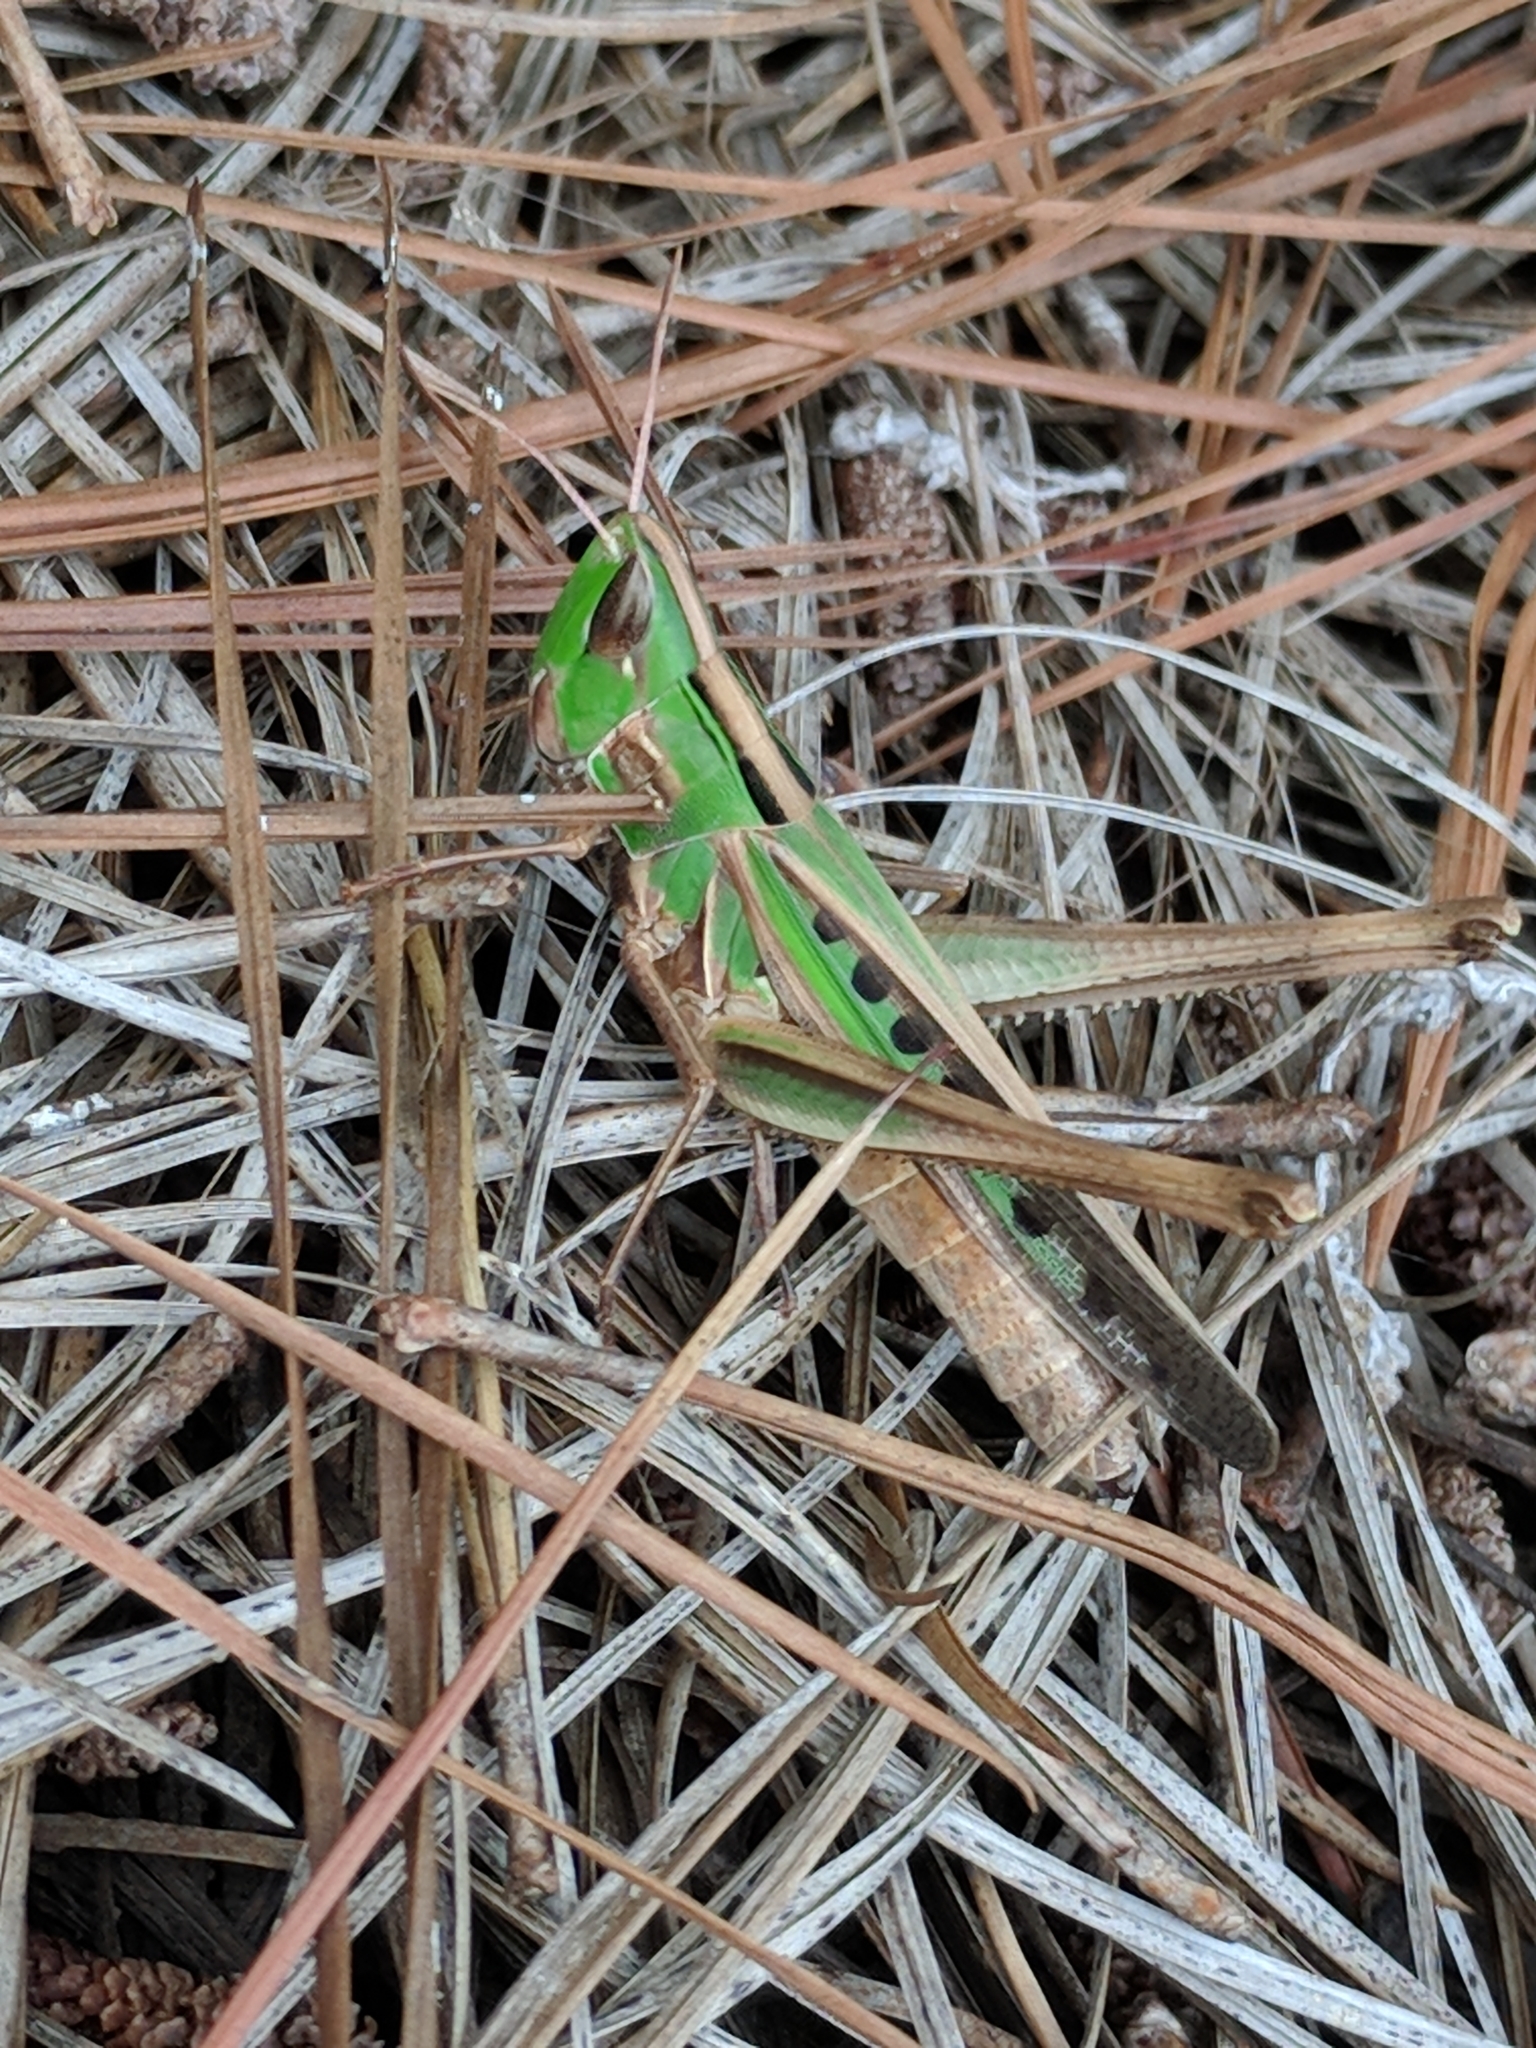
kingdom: Animalia
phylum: Arthropoda
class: Insecta
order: Orthoptera
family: Acrididae
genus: Syrbula
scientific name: Syrbula admirabilis
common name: Handsome grasshopper
